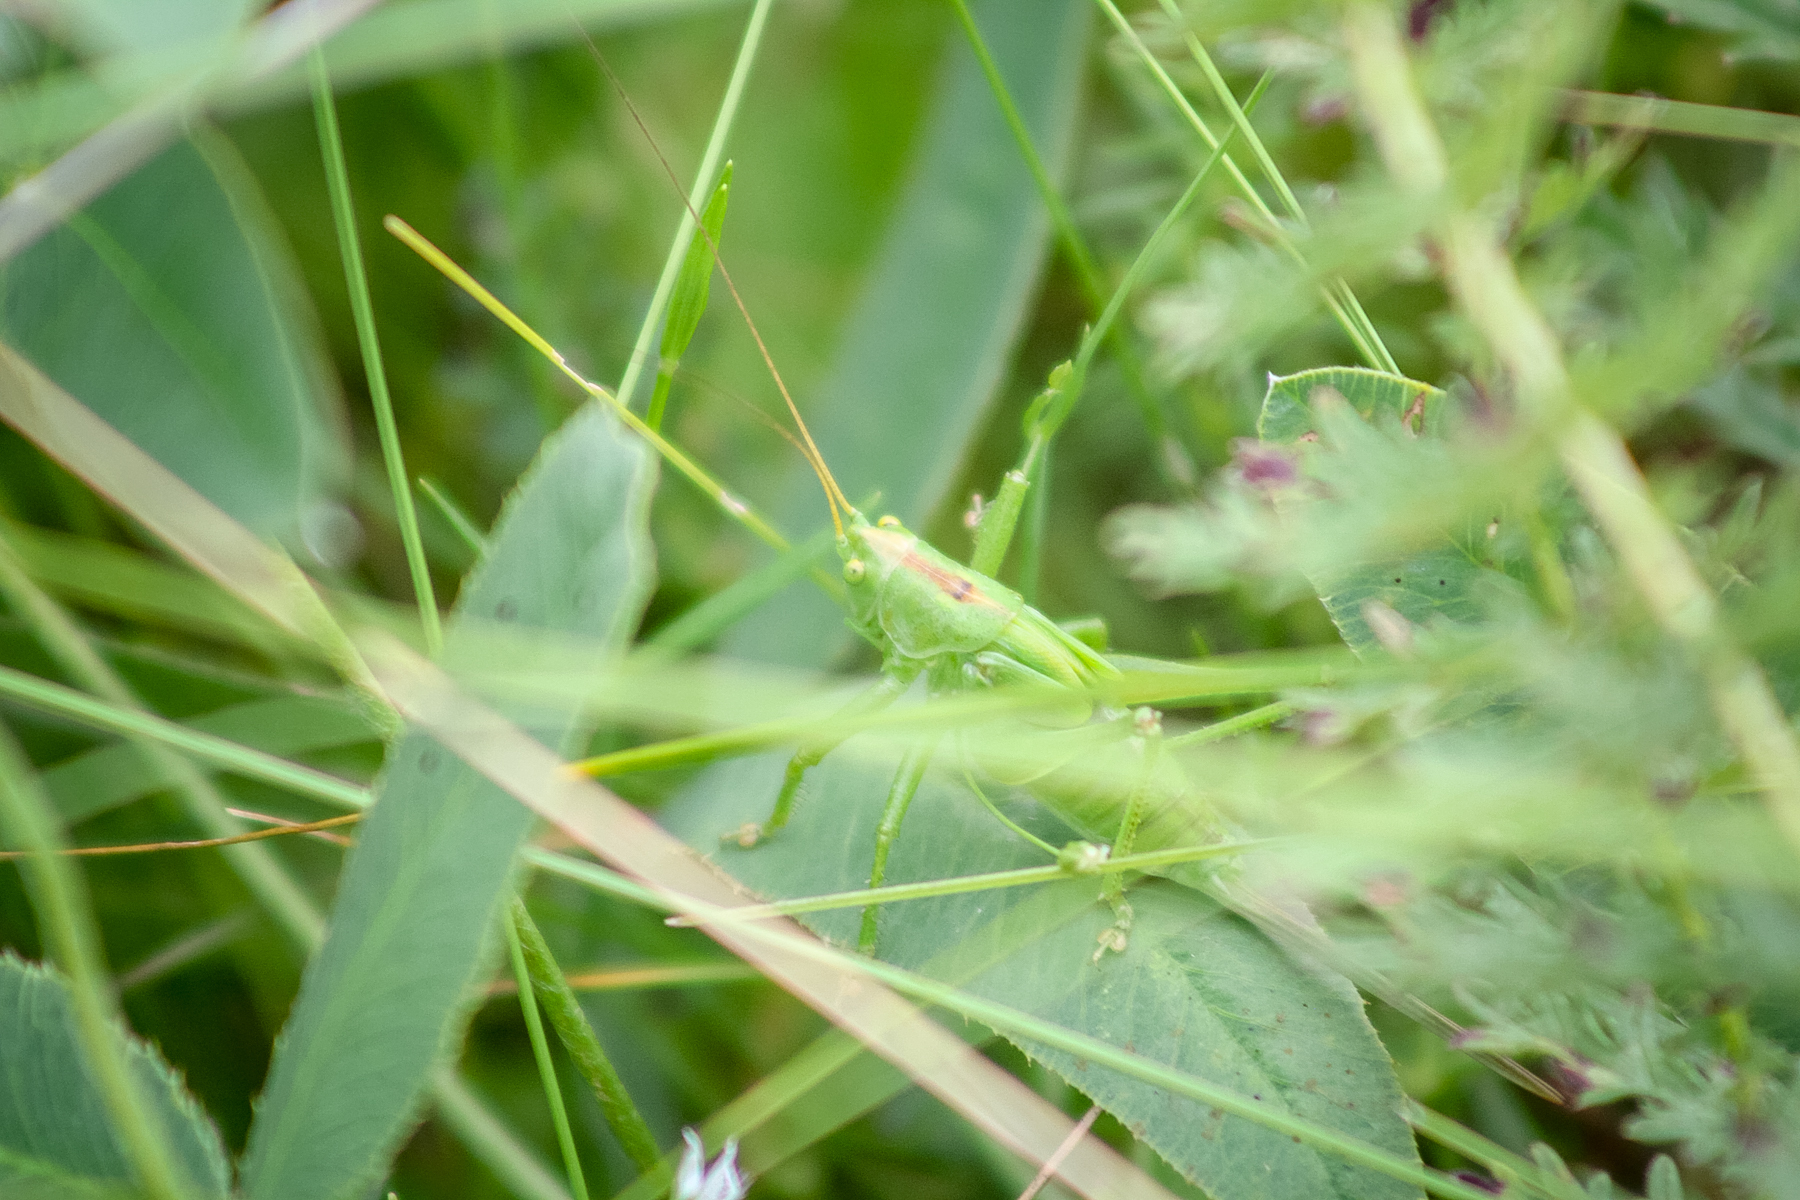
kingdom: Animalia
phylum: Arthropoda
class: Insecta
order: Orthoptera
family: Tettigoniidae
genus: Tettigonia
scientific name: Tettigonia cantans
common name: Upland green bush-cricket
